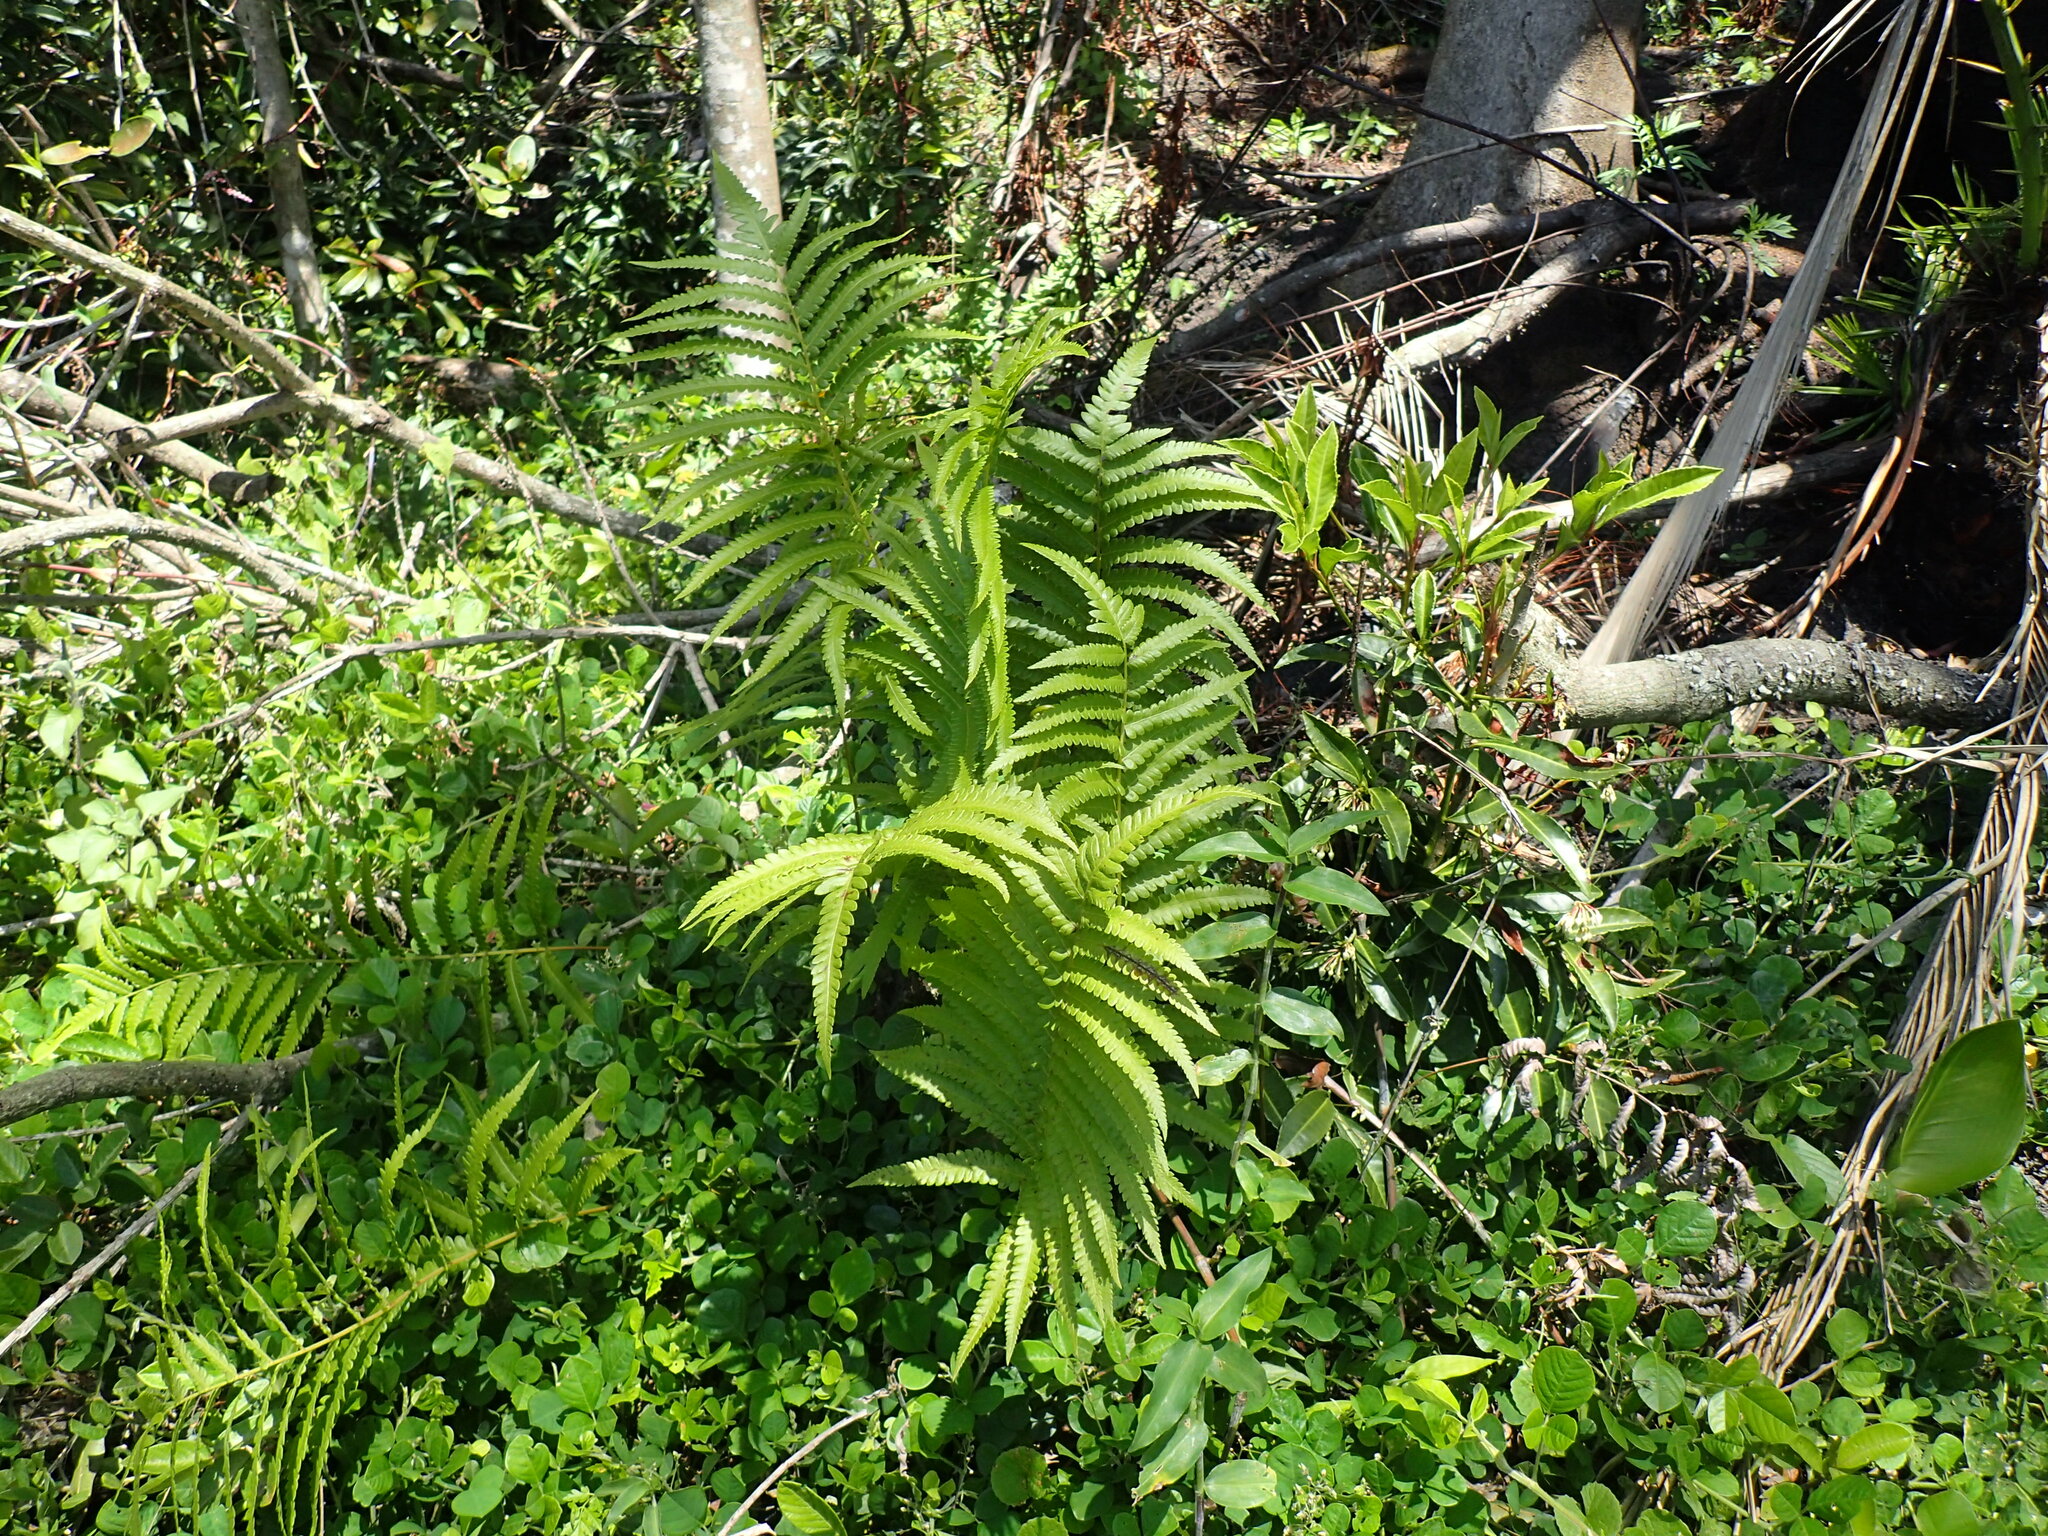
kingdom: Plantae
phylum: Tracheophyta
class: Polypodiopsida
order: Polypodiales
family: Thelypteridaceae
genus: Cyclosorus
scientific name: Cyclosorus interruptus
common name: Neke fern
